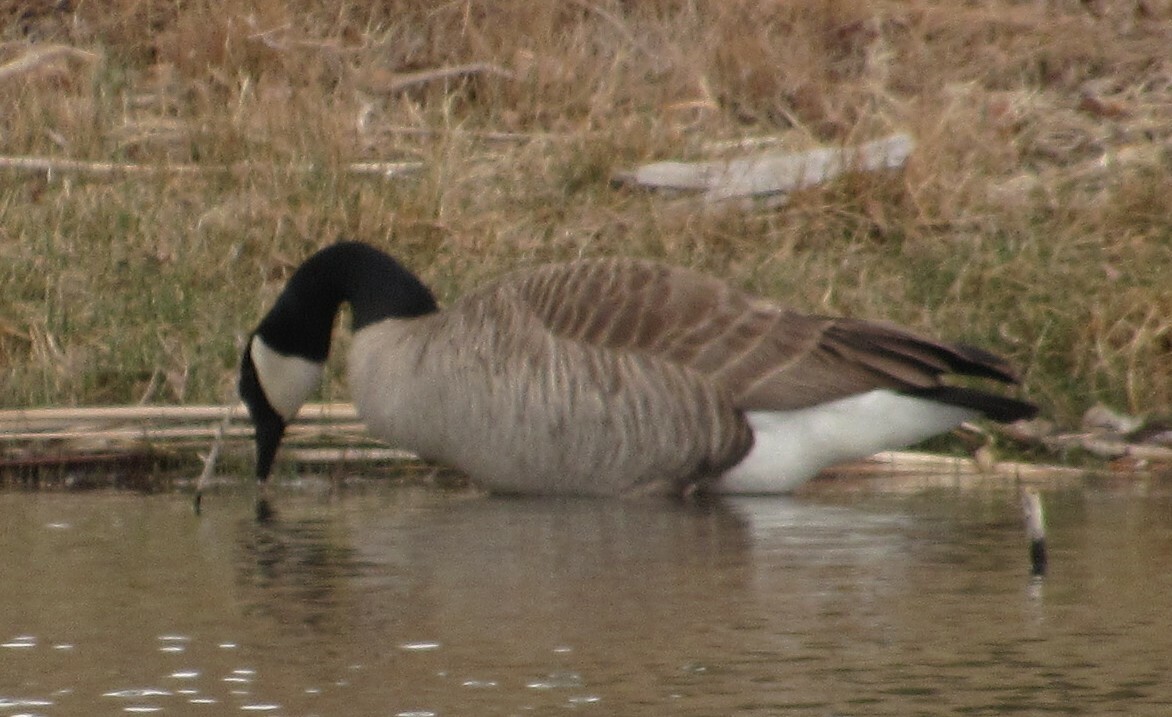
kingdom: Animalia
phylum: Chordata
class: Aves
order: Anseriformes
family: Anatidae
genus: Branta
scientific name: Branta canadensis
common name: Canada goose
